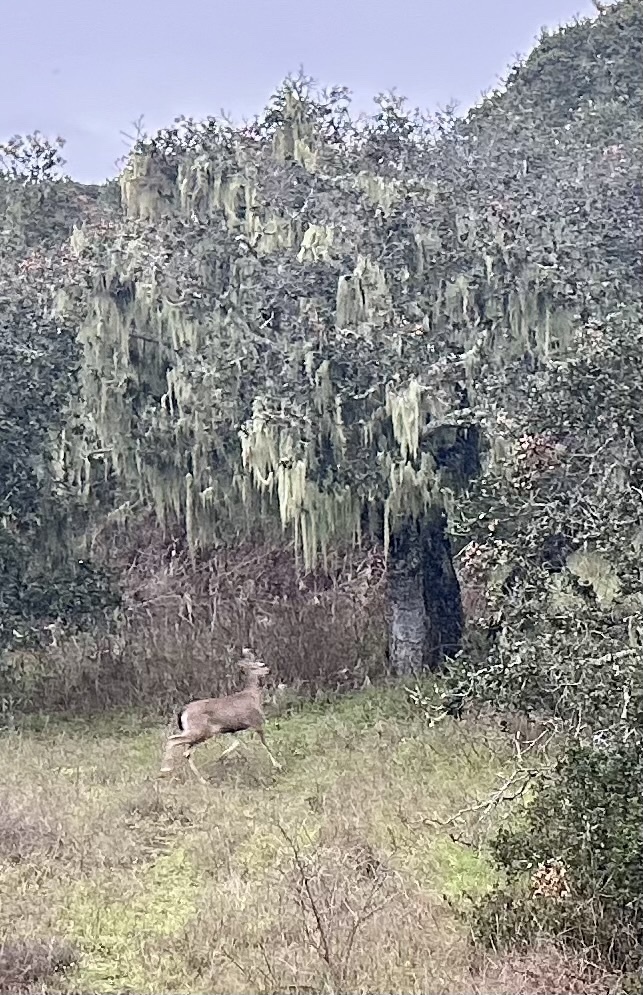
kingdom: Animalia
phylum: Chordata
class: Mammalia
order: Artiodactyla
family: Cervidae
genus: Odocoileus
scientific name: Odocoileus hemionus
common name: Mule deer
